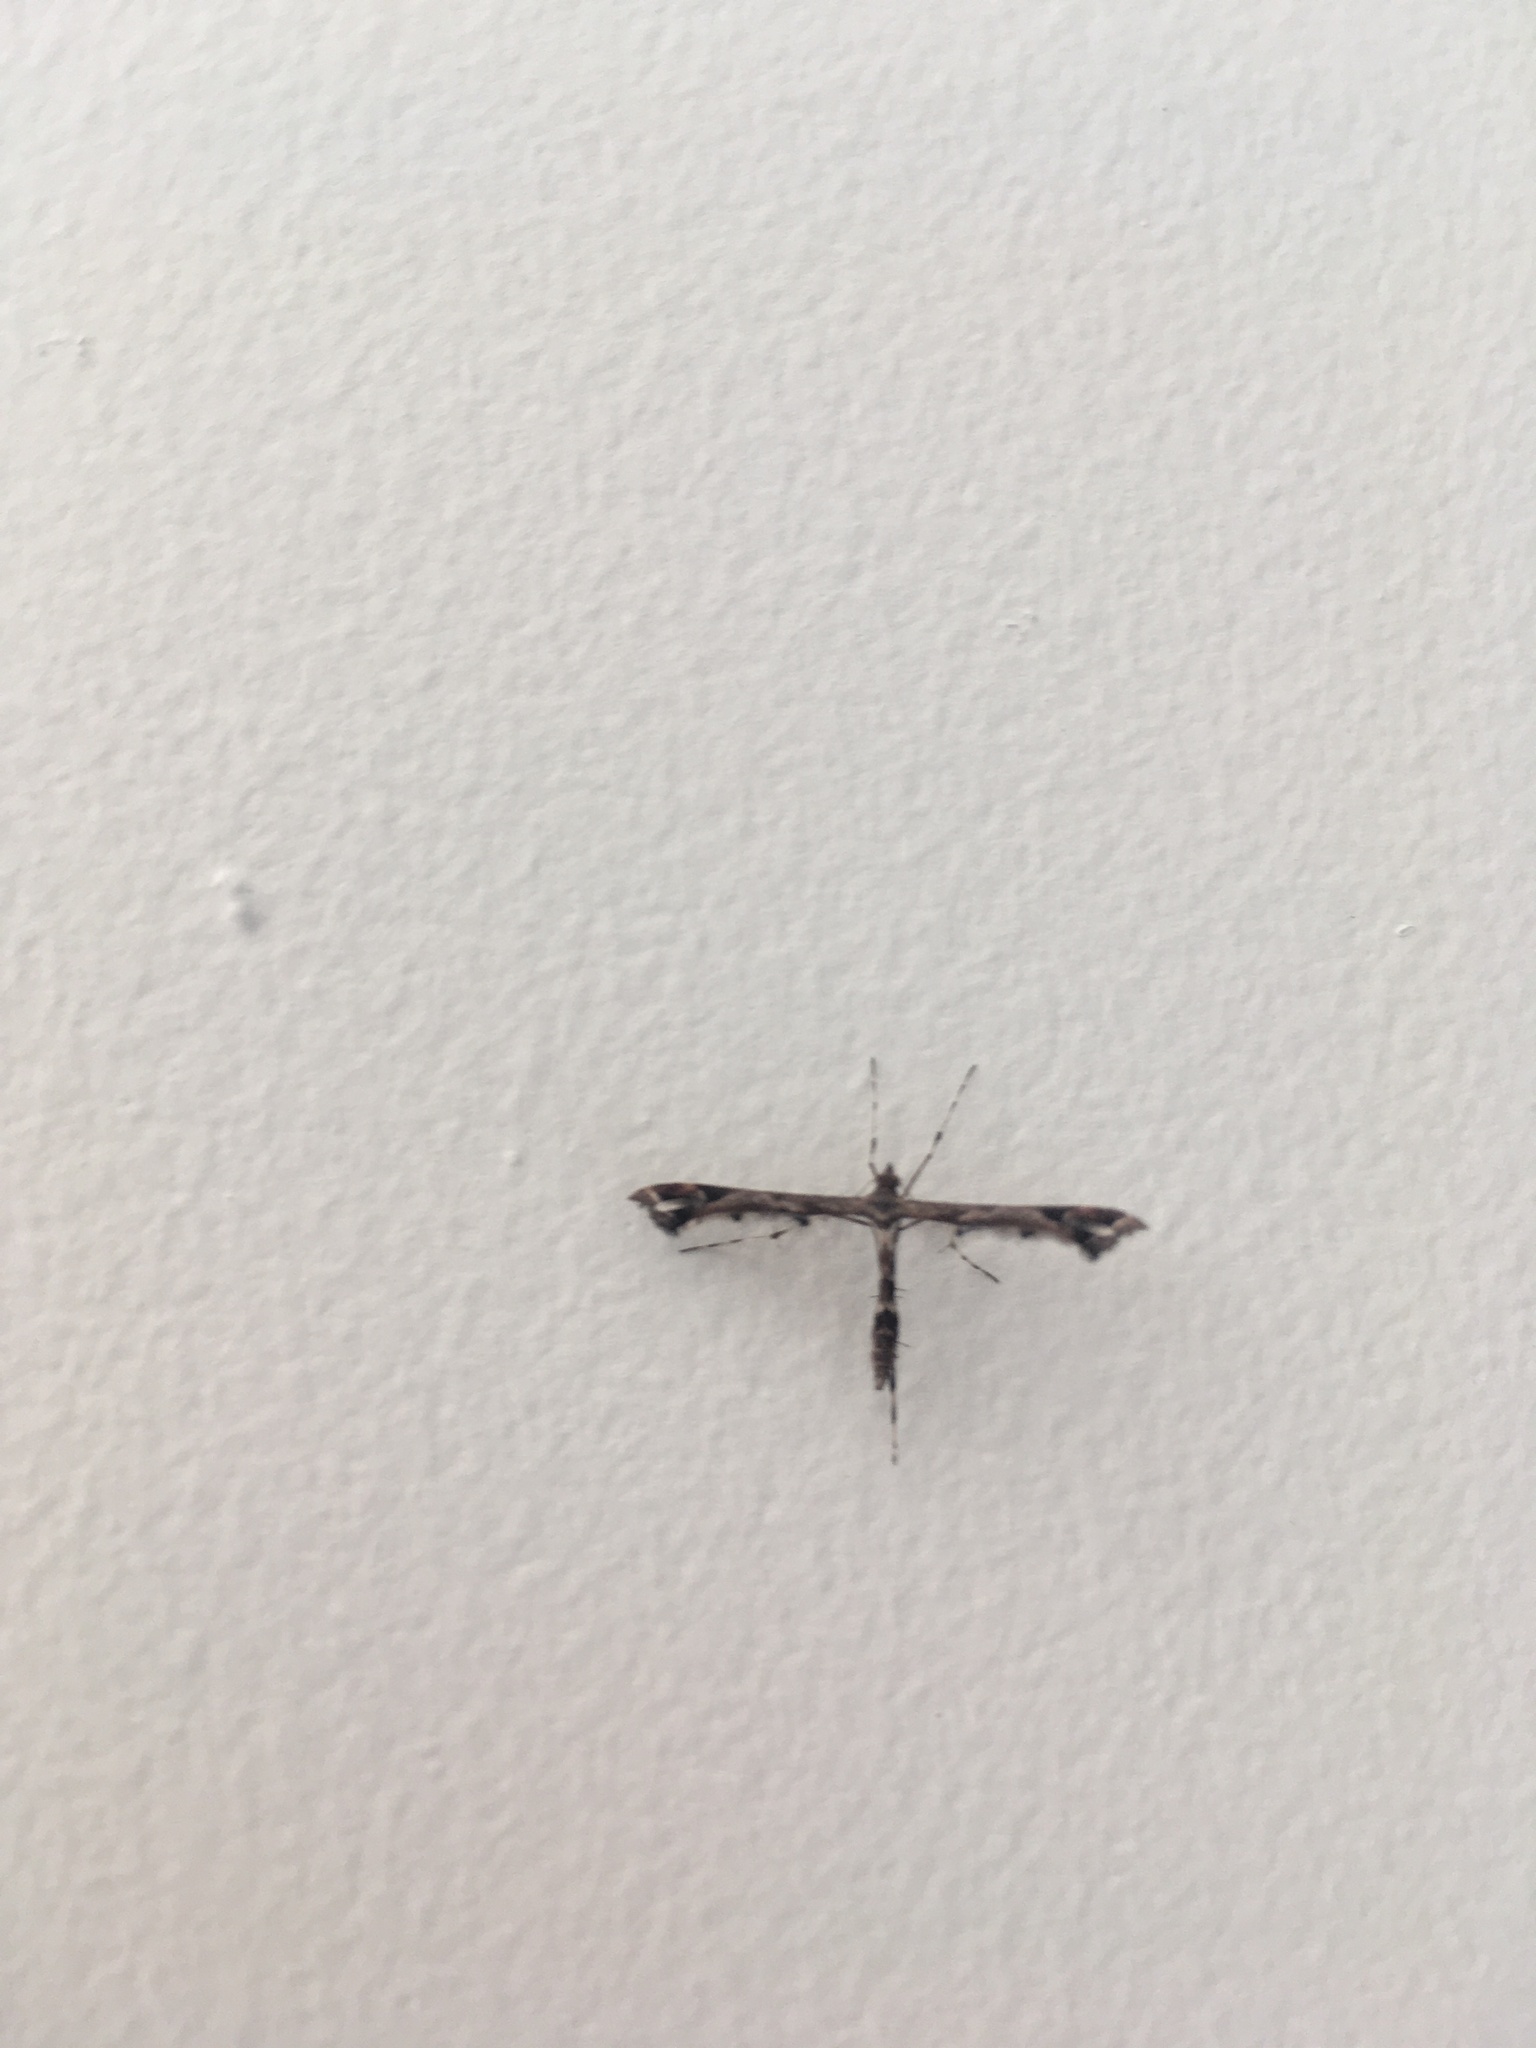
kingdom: Animalia
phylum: Arthropoda
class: Insecta
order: Lepidoptera
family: Pterophoridae
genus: Amblyptilia
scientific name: Amblyptilia acanthadactyla
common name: Beautiful plume
